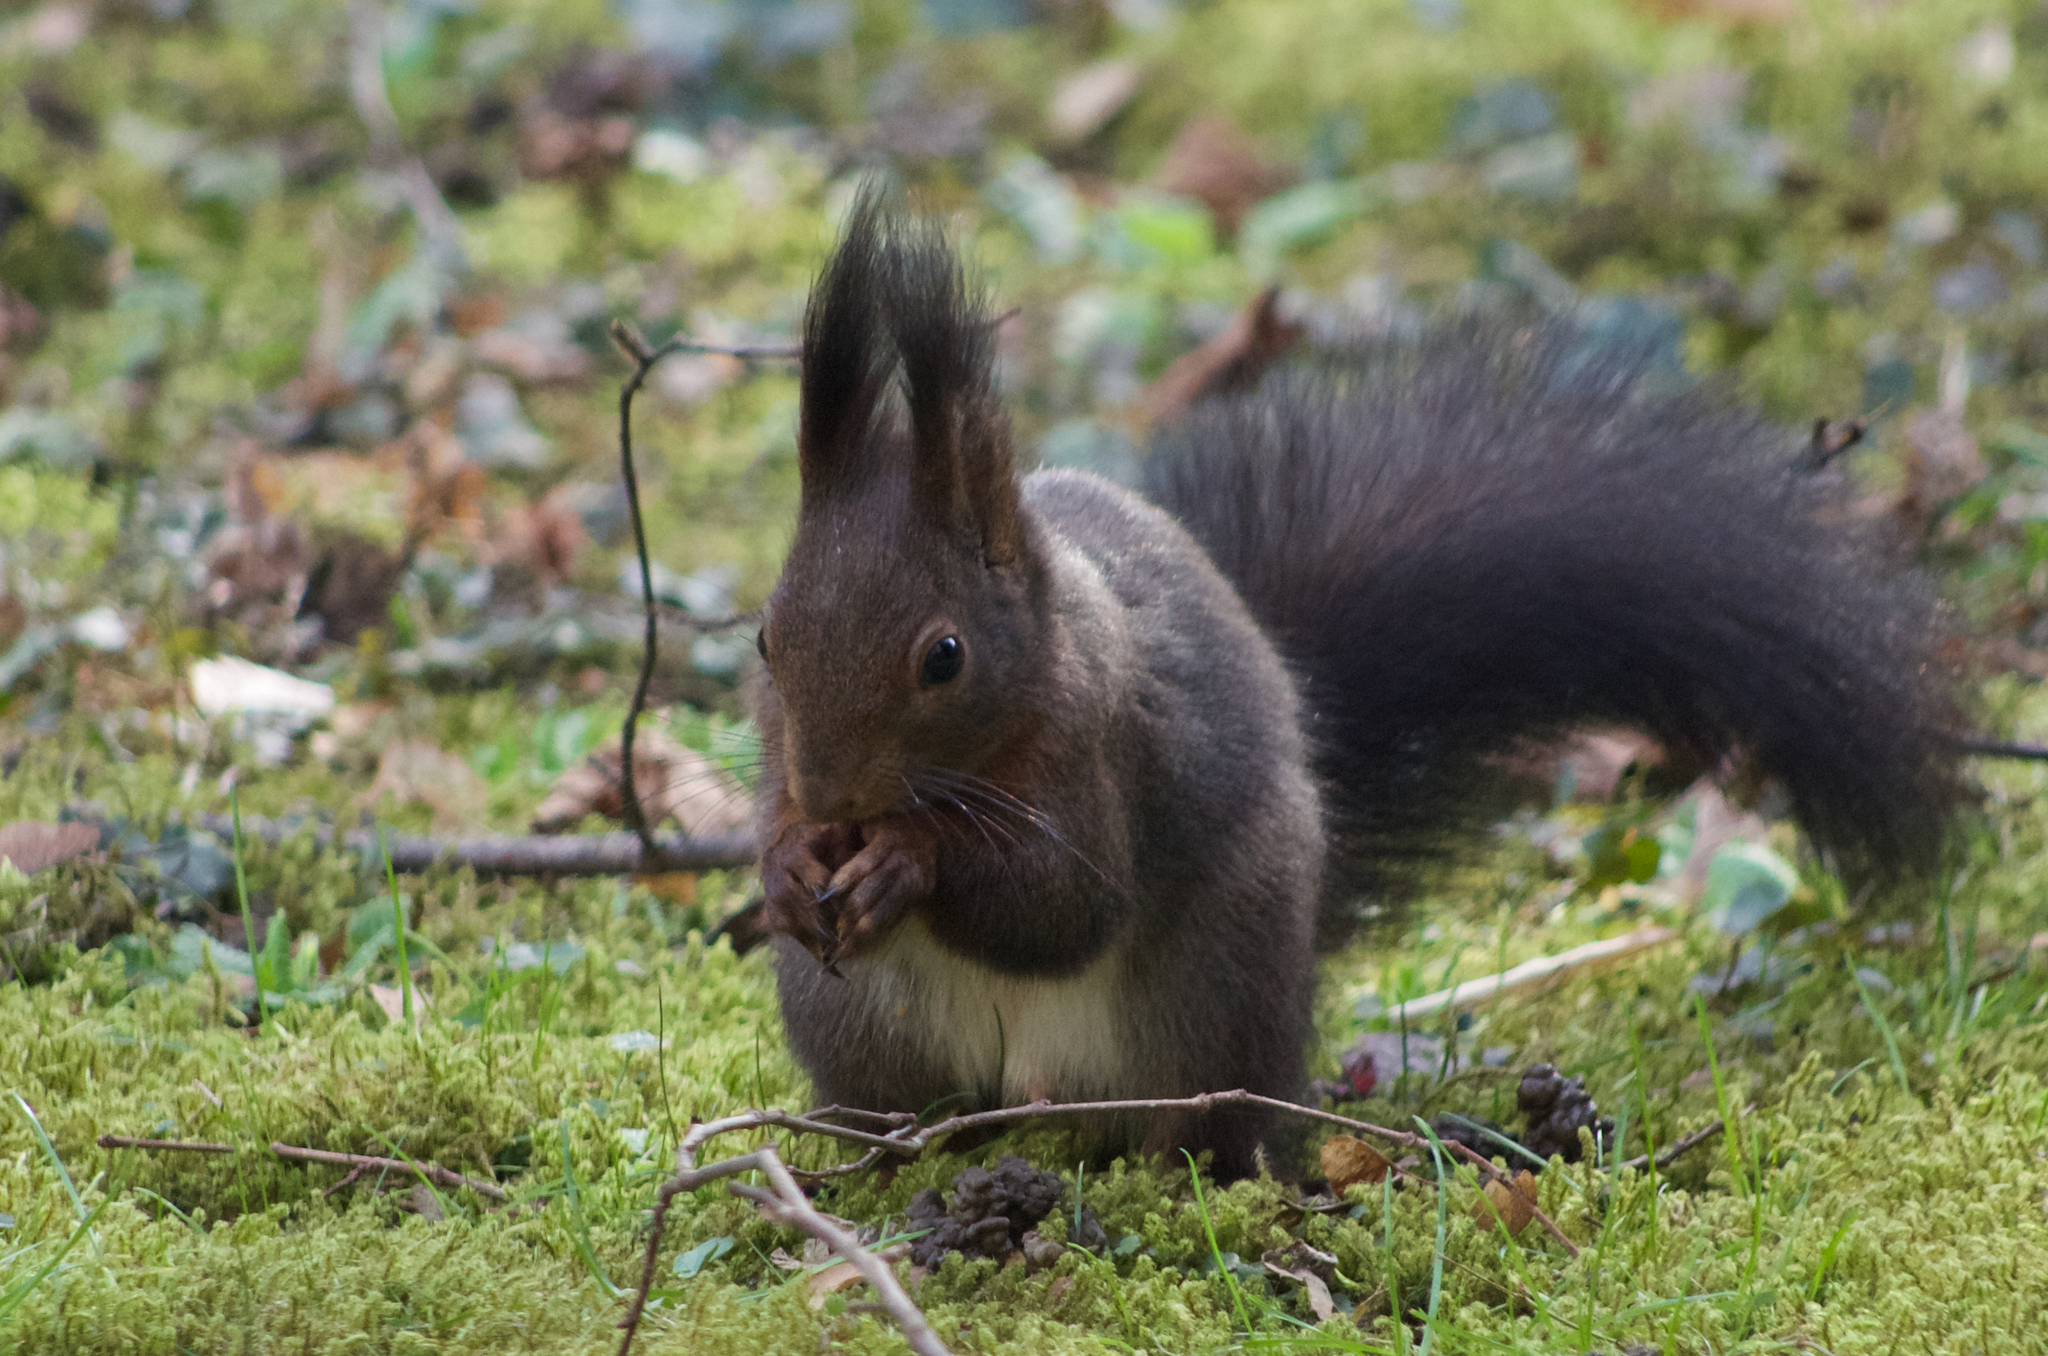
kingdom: Animalia
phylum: Chordata
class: Mammalia
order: Rodentia
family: Sciuridae
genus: Sciurus
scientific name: Sciurus vulgaris
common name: Eurasian red squirrel
